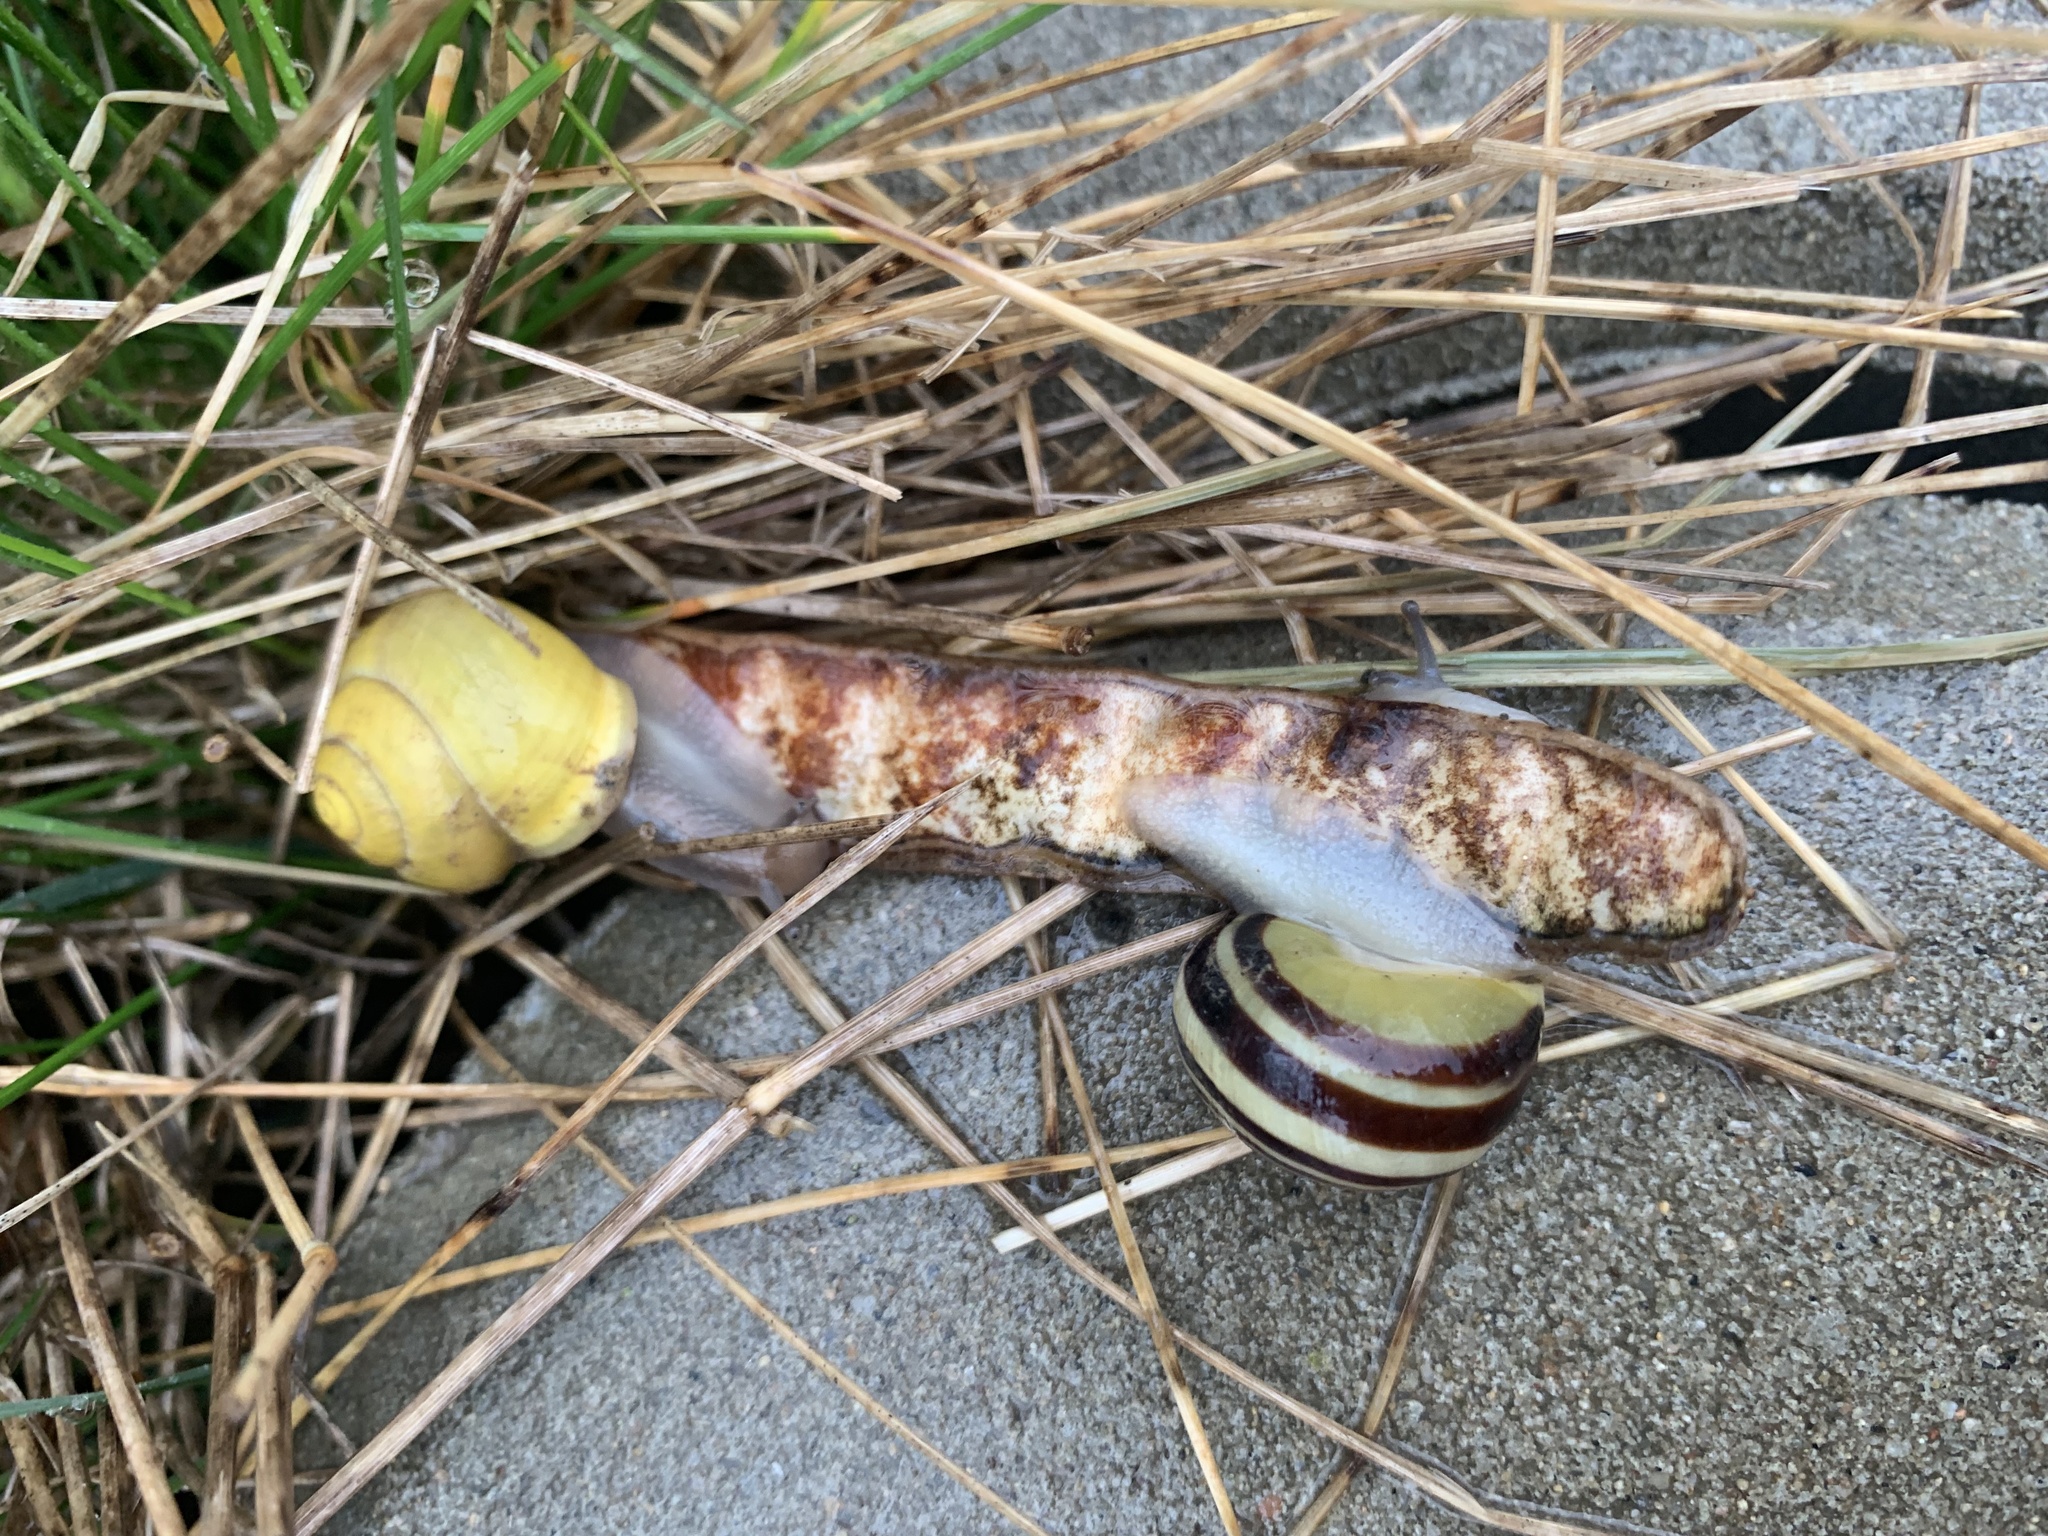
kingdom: Animalia
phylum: Mollusca
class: Gastropoda
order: Stylommatophora
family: Helicidae
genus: Cepaea
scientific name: Cepaea hortensis
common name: White-lip gardensnail
